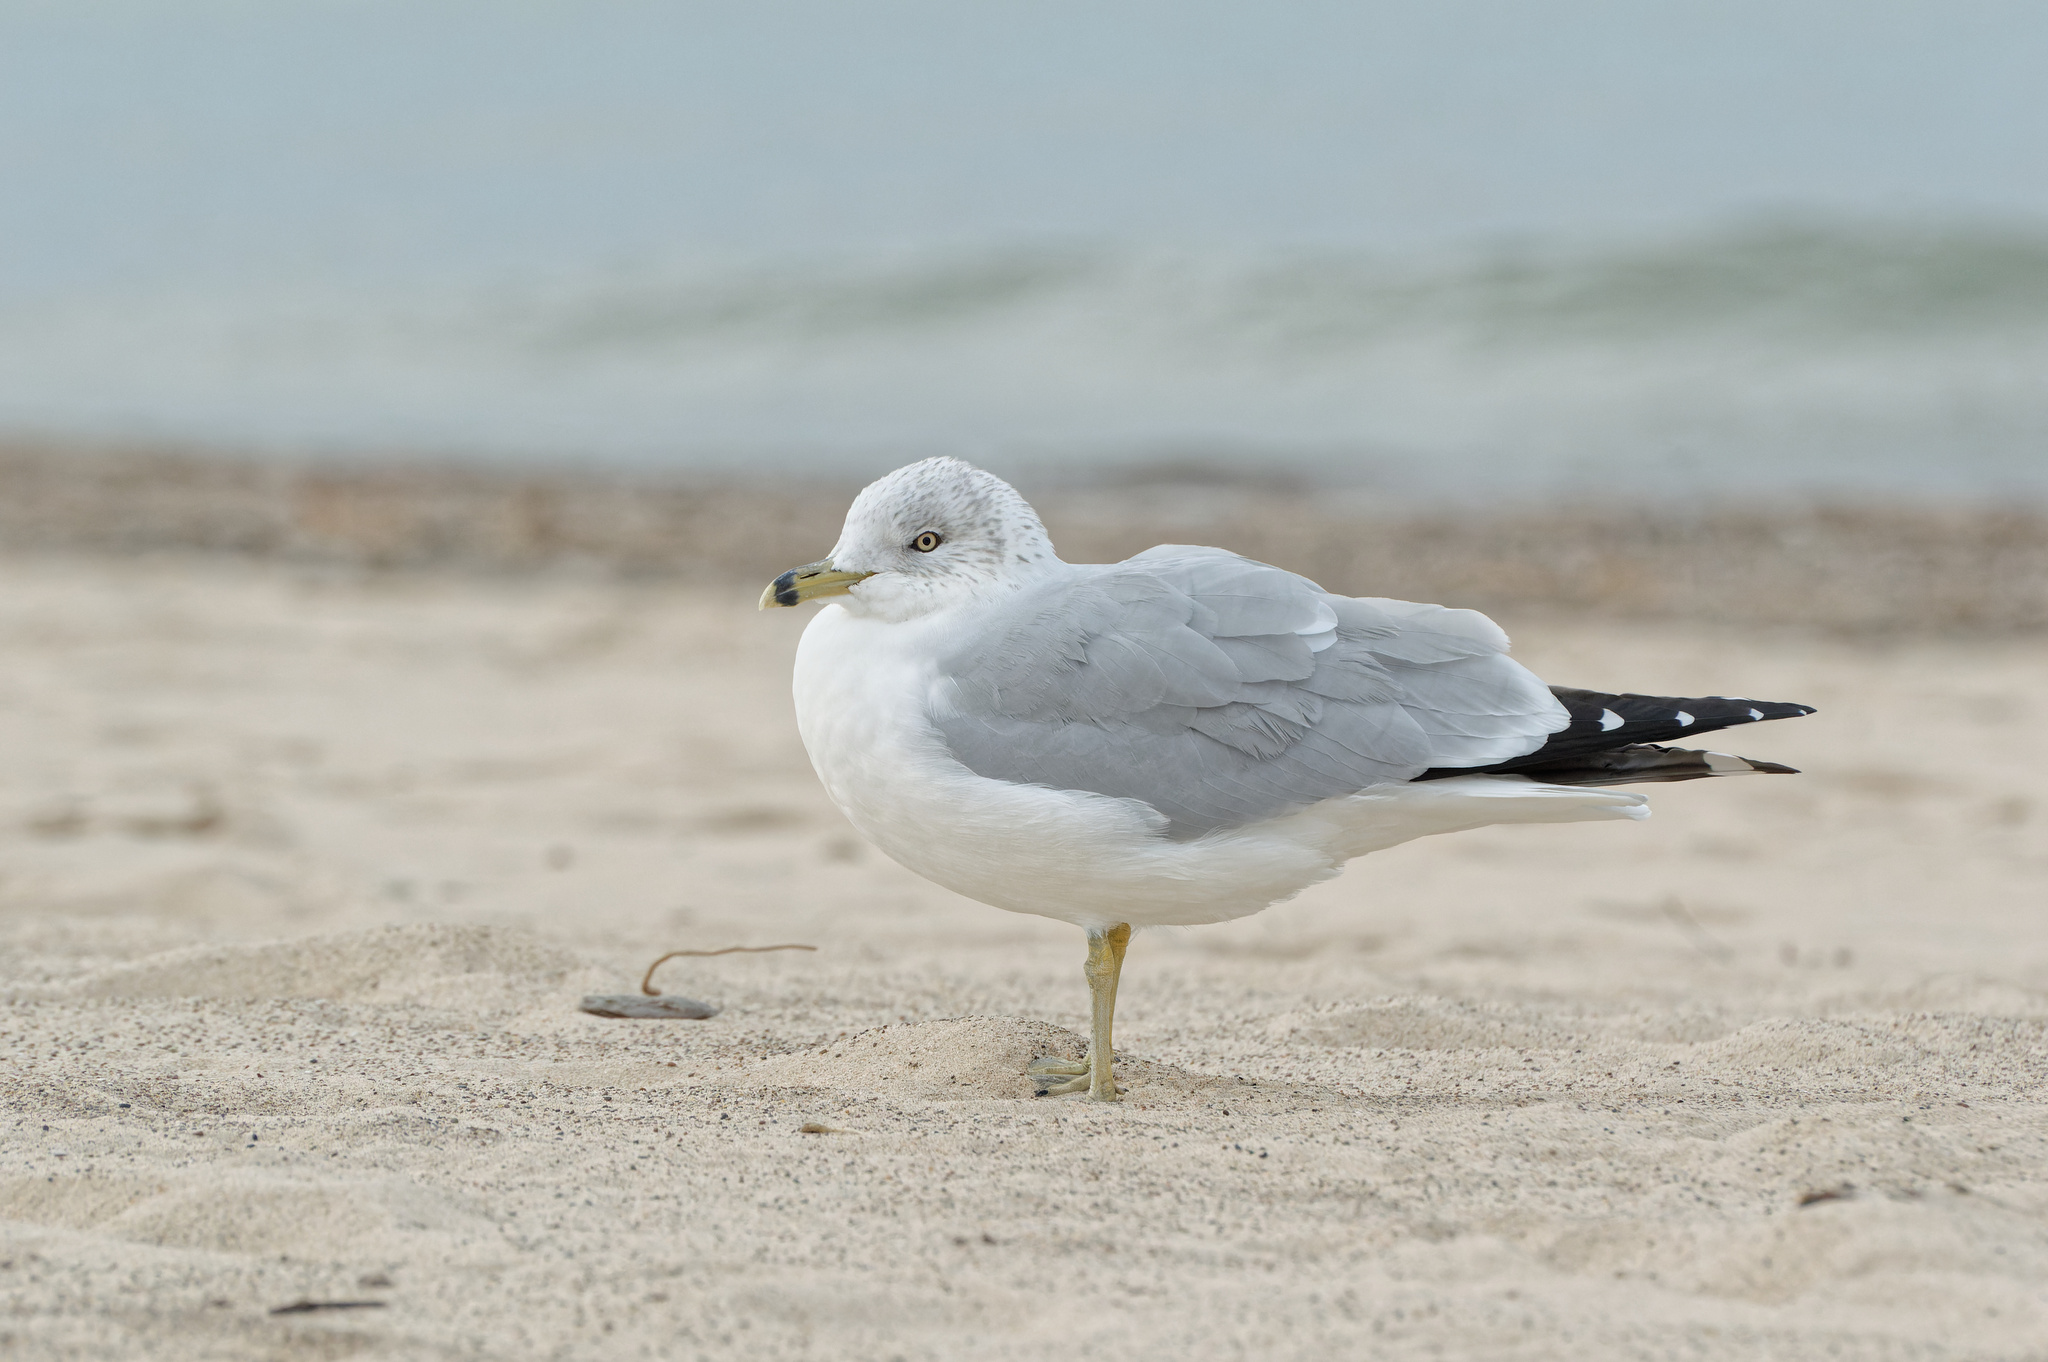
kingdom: Animalia
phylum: Chordata
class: Aves
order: Charadriiformes
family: Laridae
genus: Larus
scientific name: Larus delawarensis
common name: Ring-billed gull
